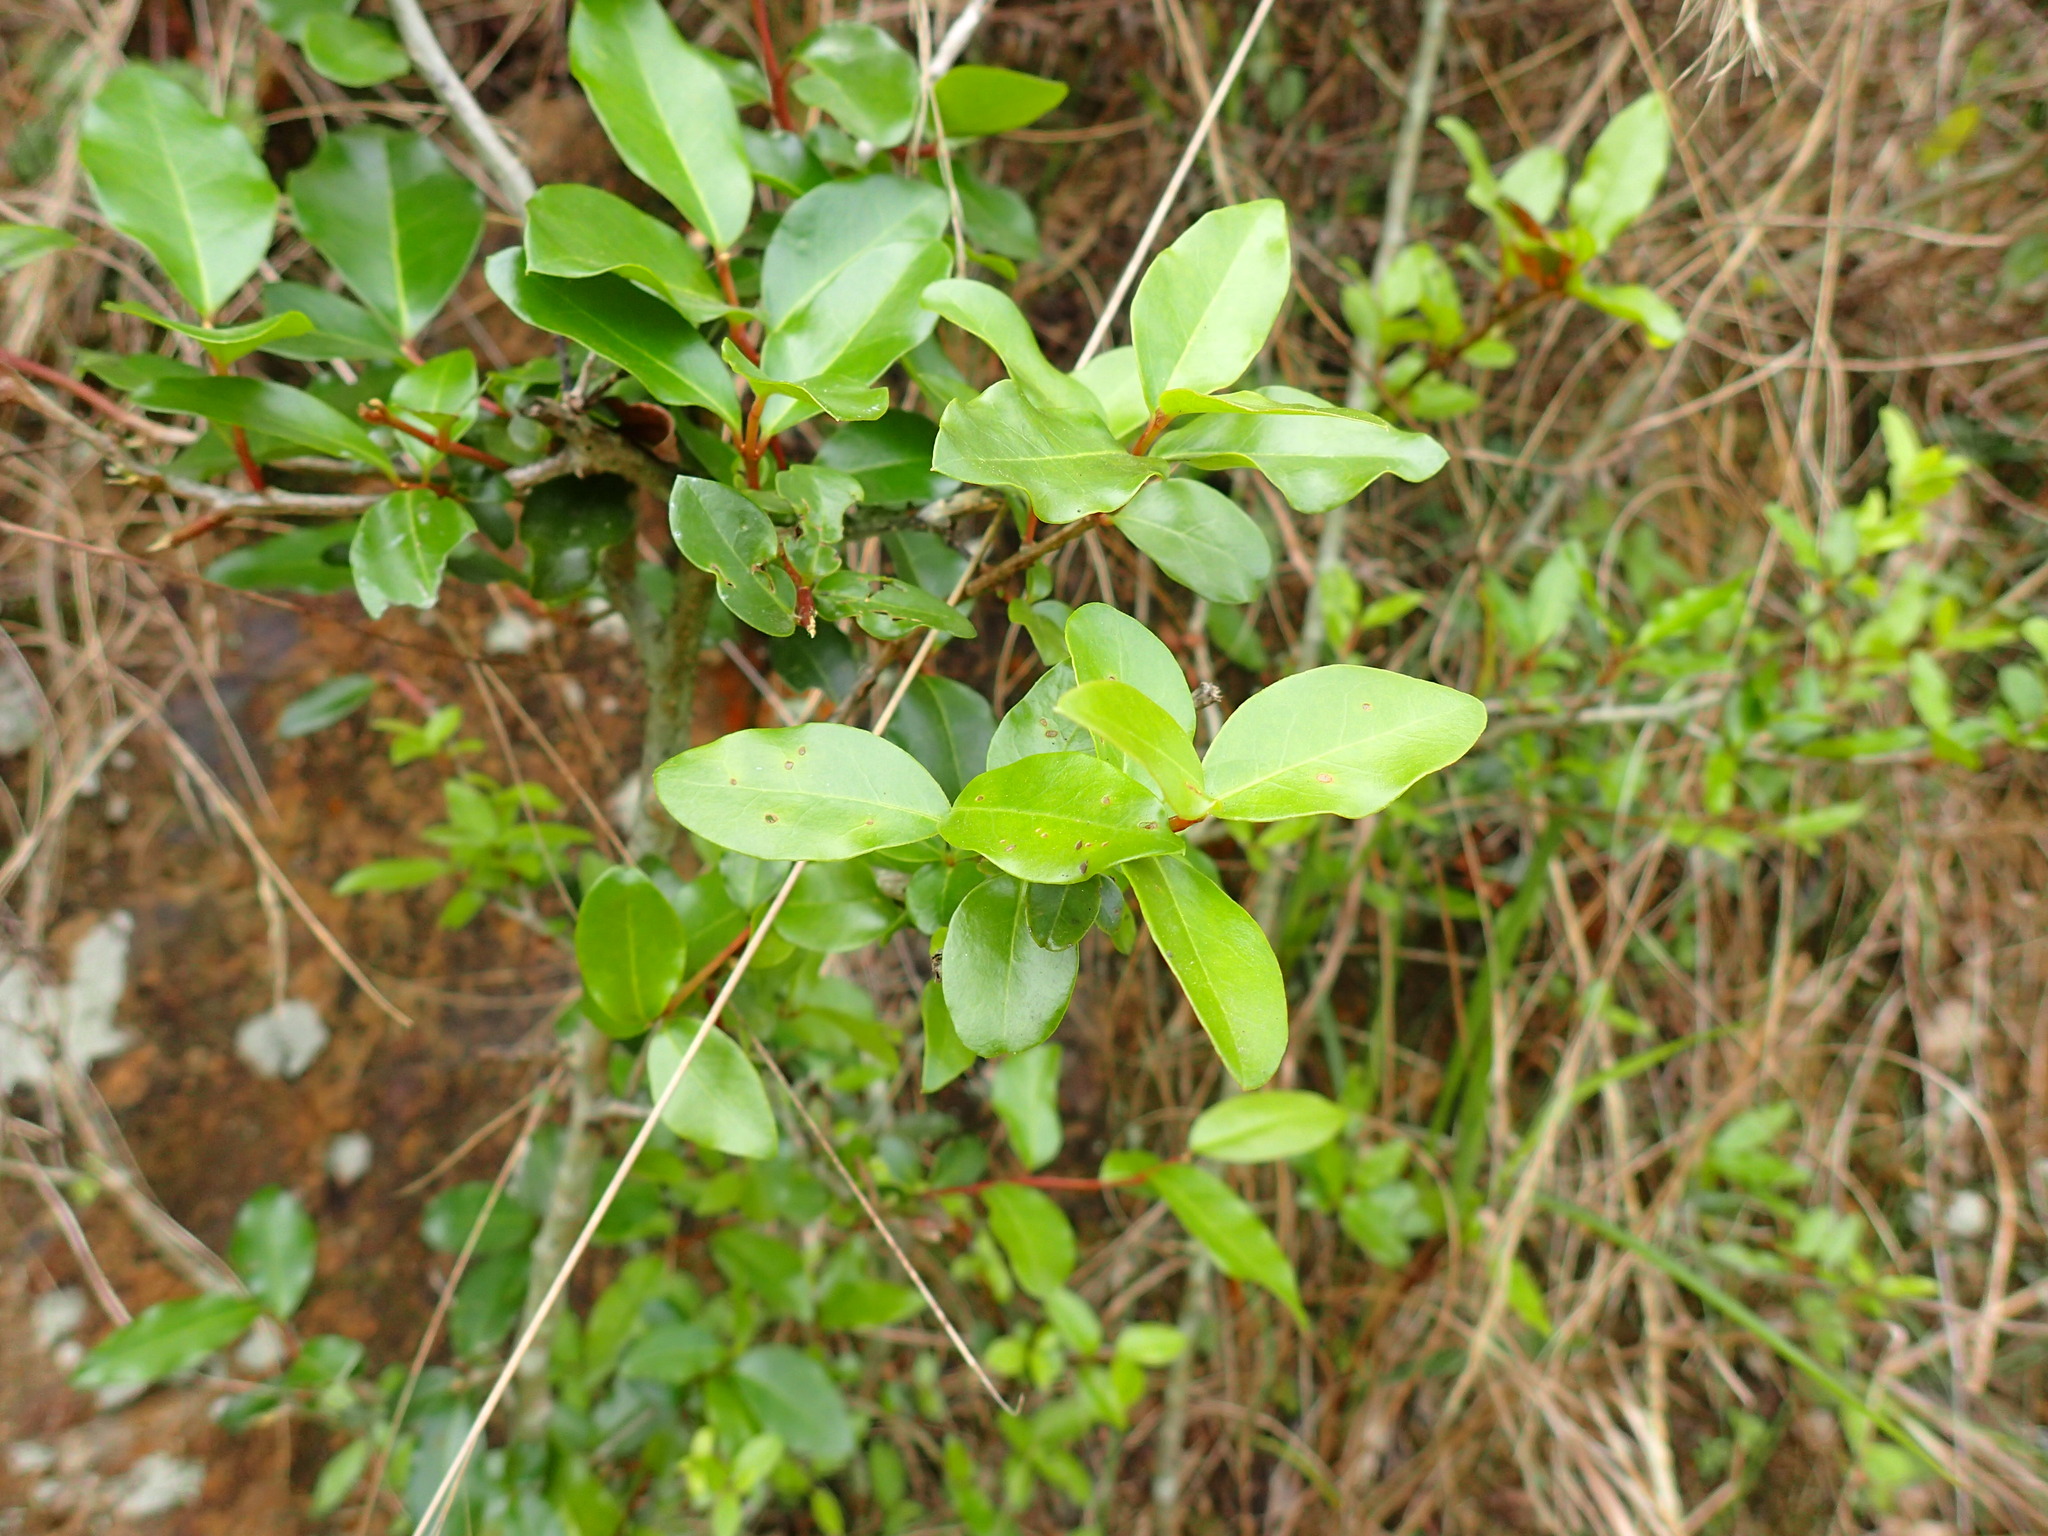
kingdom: Plantae
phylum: Tracheophyta
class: Magnoliopsida
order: Metteniusales
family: Metteniusaceae
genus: Apodytes
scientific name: Apodytes dimidiata
